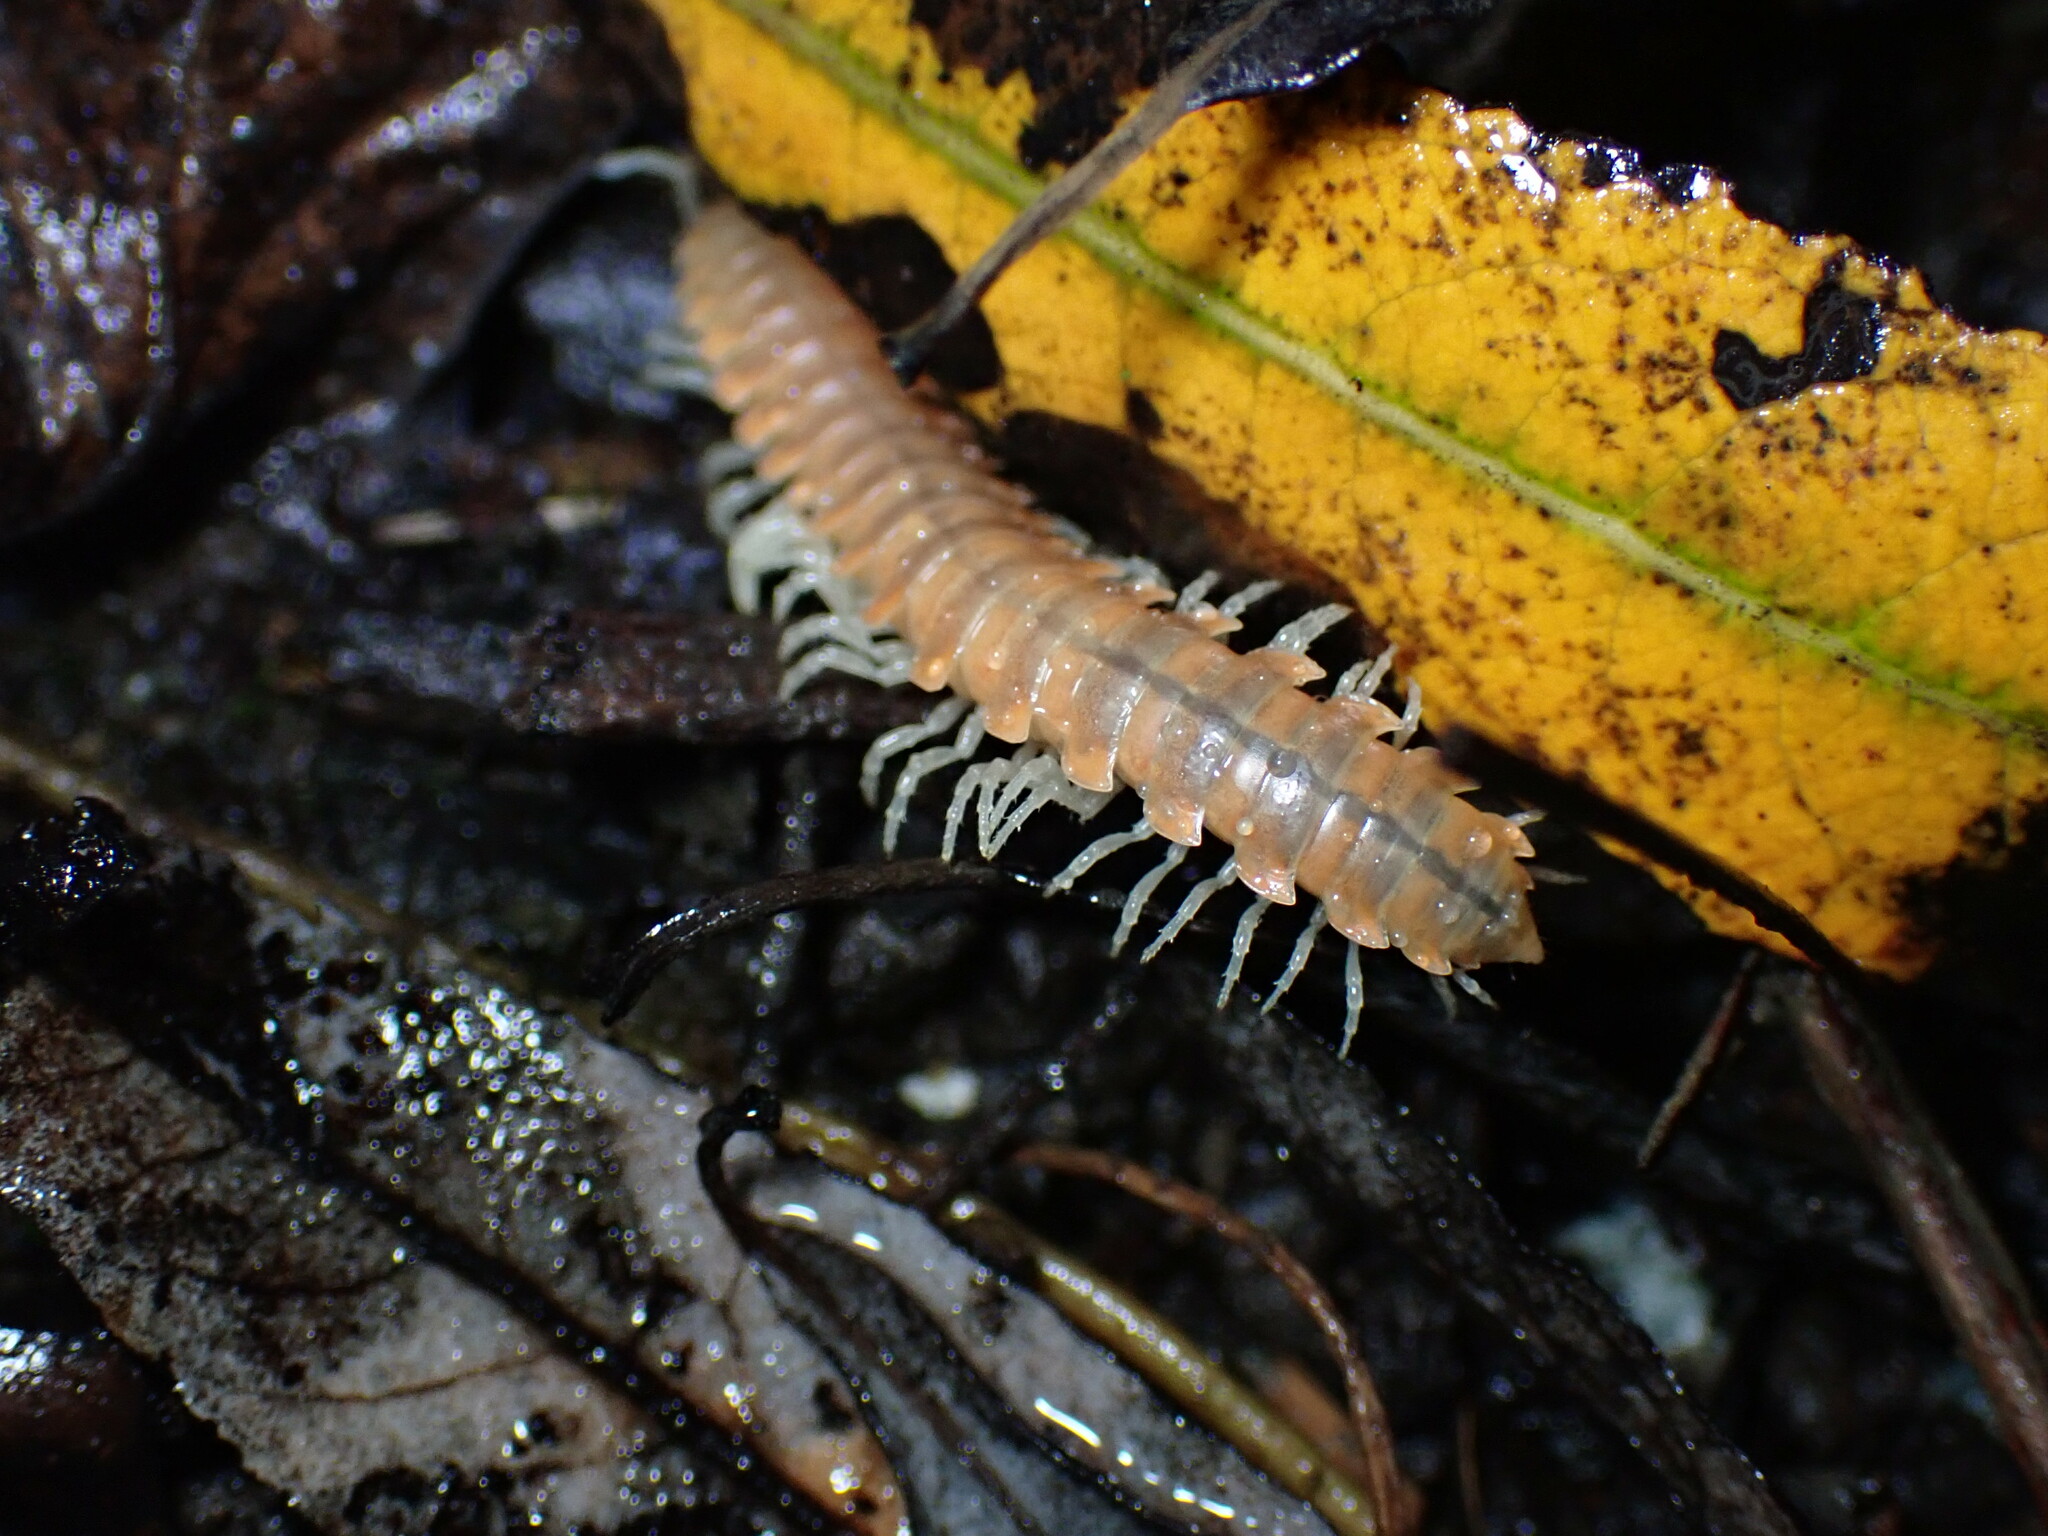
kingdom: Animalia
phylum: Arthropoda
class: Diplopoda
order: Polydesmida
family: Xystodesmidae
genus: Xystocheir
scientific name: Xystocheir dissecta
